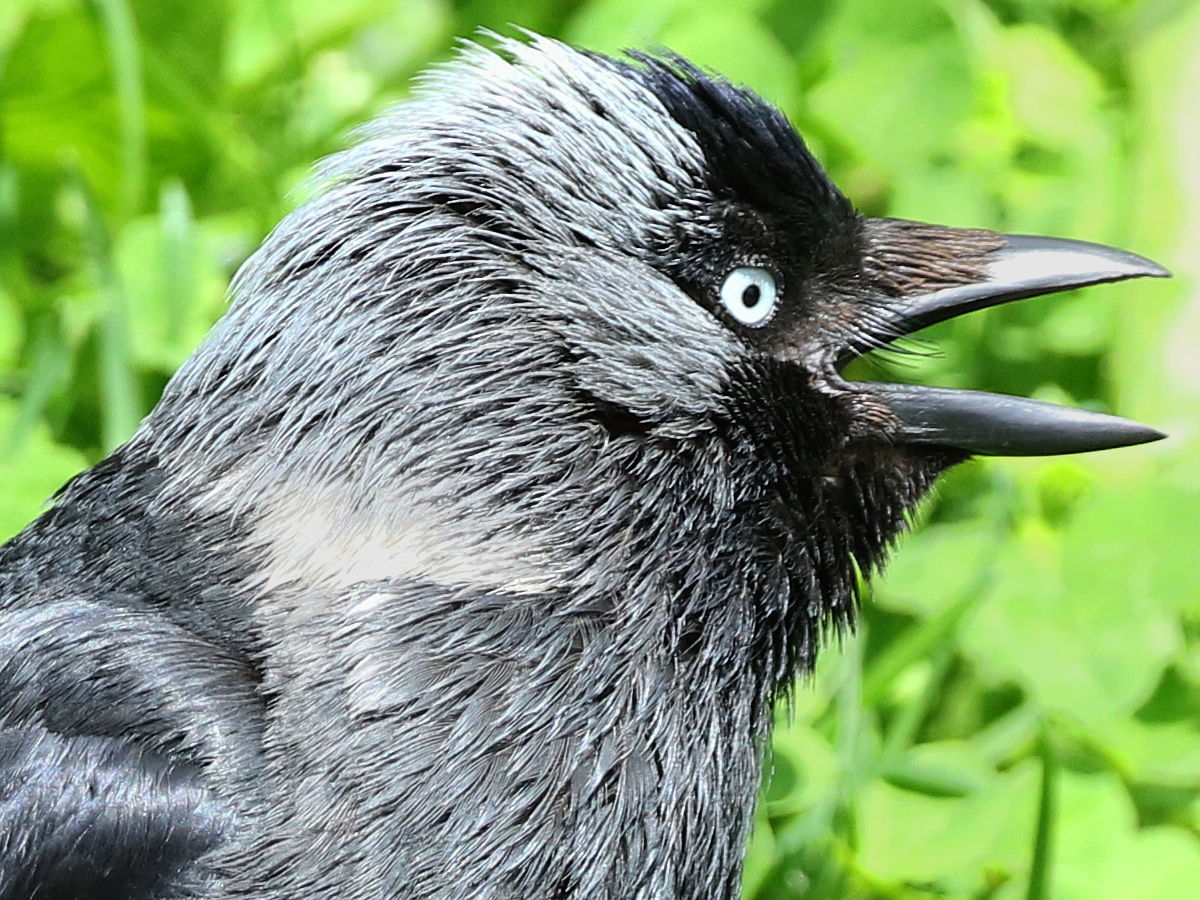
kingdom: Animalia
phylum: Chordata
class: Aves
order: Passeriformes
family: Corvidae
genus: Coloeus
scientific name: Coloeus monedula
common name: Western jackdaw
